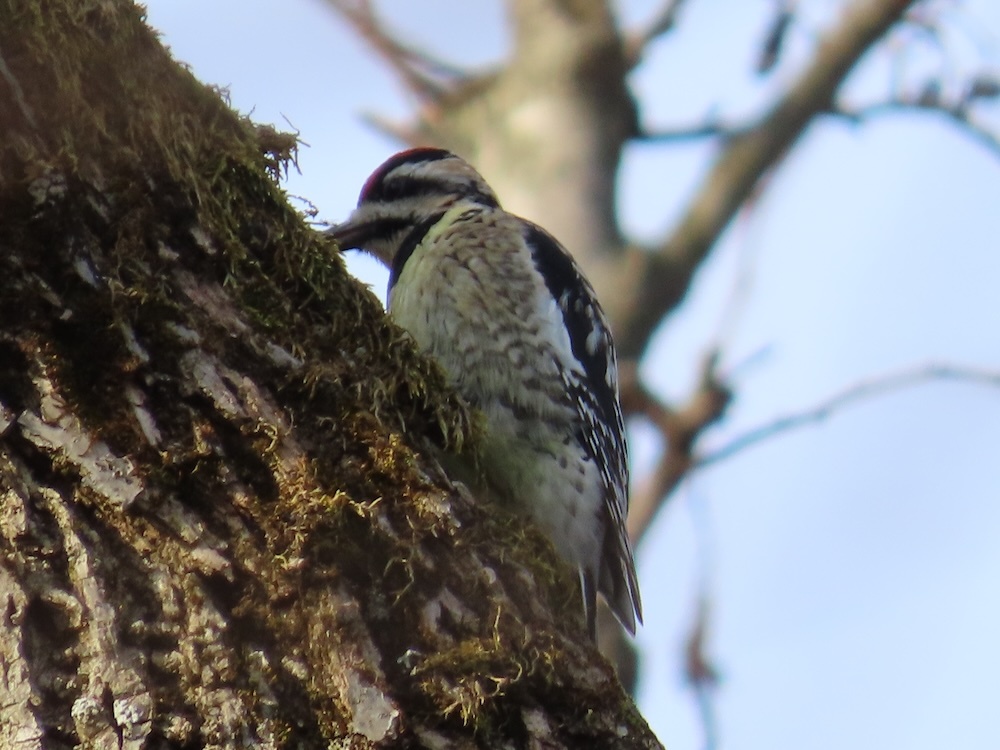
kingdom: Animalia
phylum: Chordata
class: Aves
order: Piciformes
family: Picidae
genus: Sphyrapicus
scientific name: Sphyrapicus varius
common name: Yellow-bellied sapsucker
